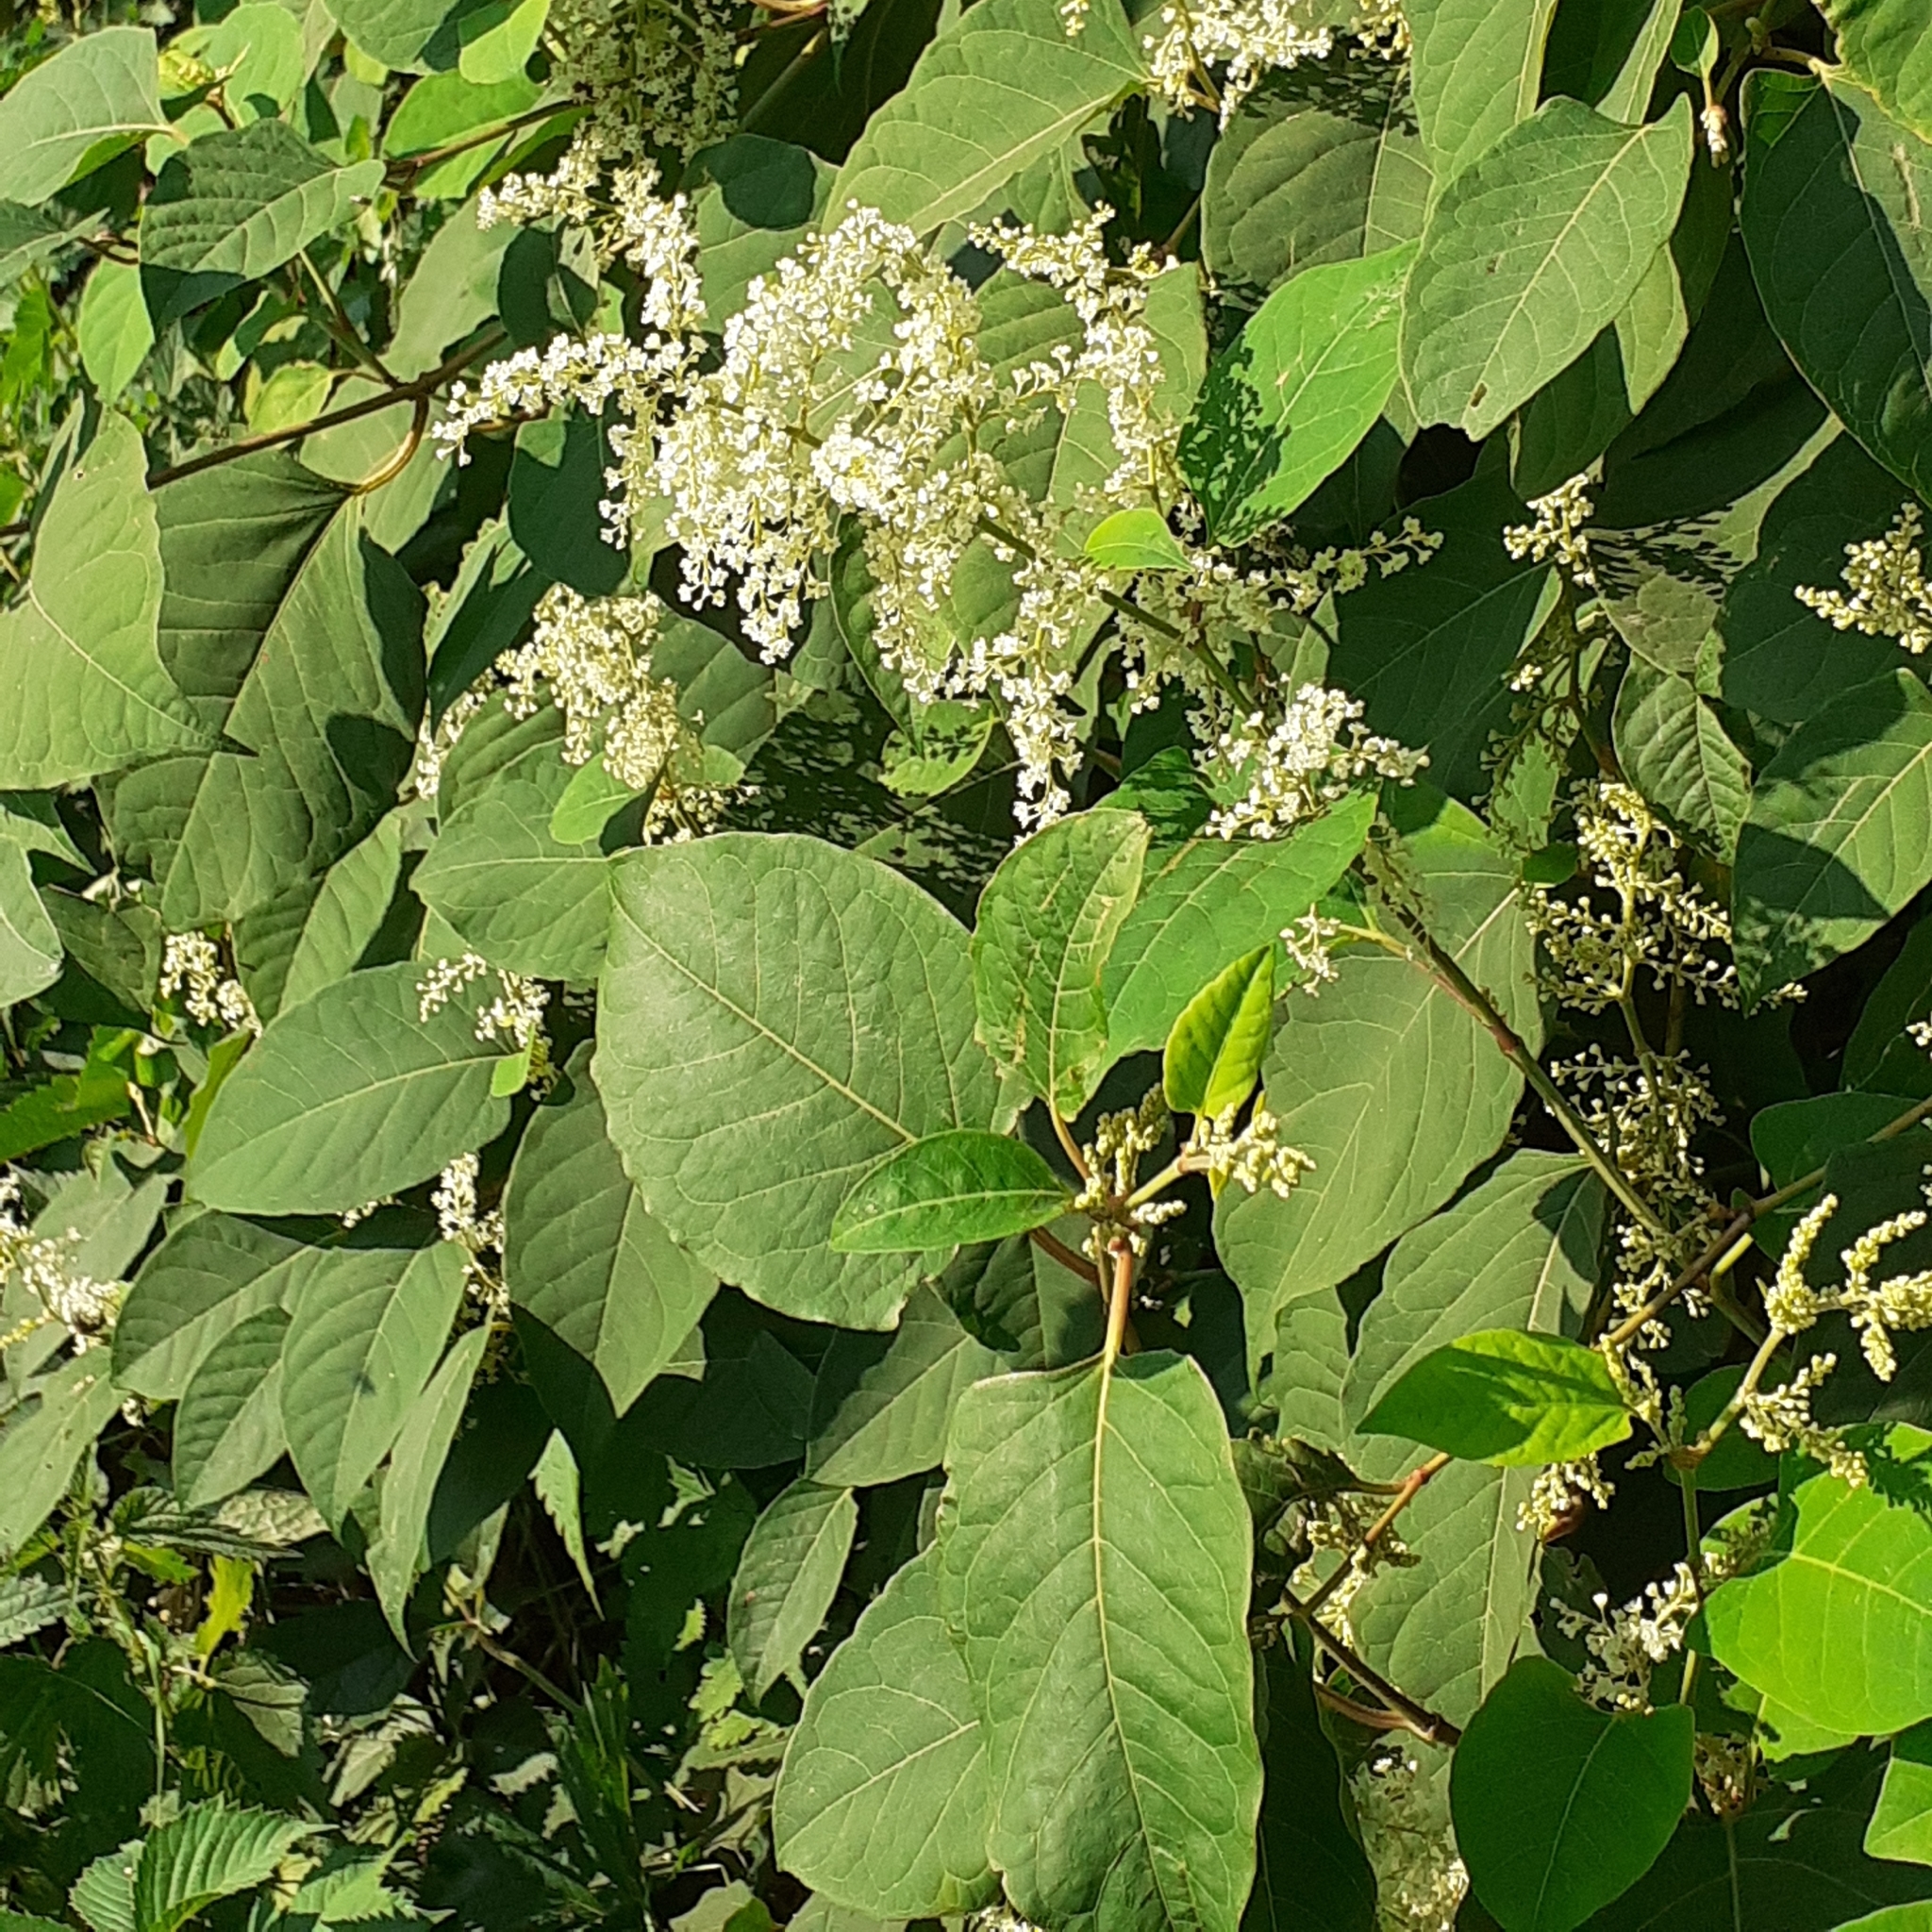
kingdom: Plantae
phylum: Tracheophyta
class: Magnoliopsida
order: Caryophyllales
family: Polygonaceae
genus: Reynoutria
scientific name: Reynoutria japonica
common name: Japanese knotweed
